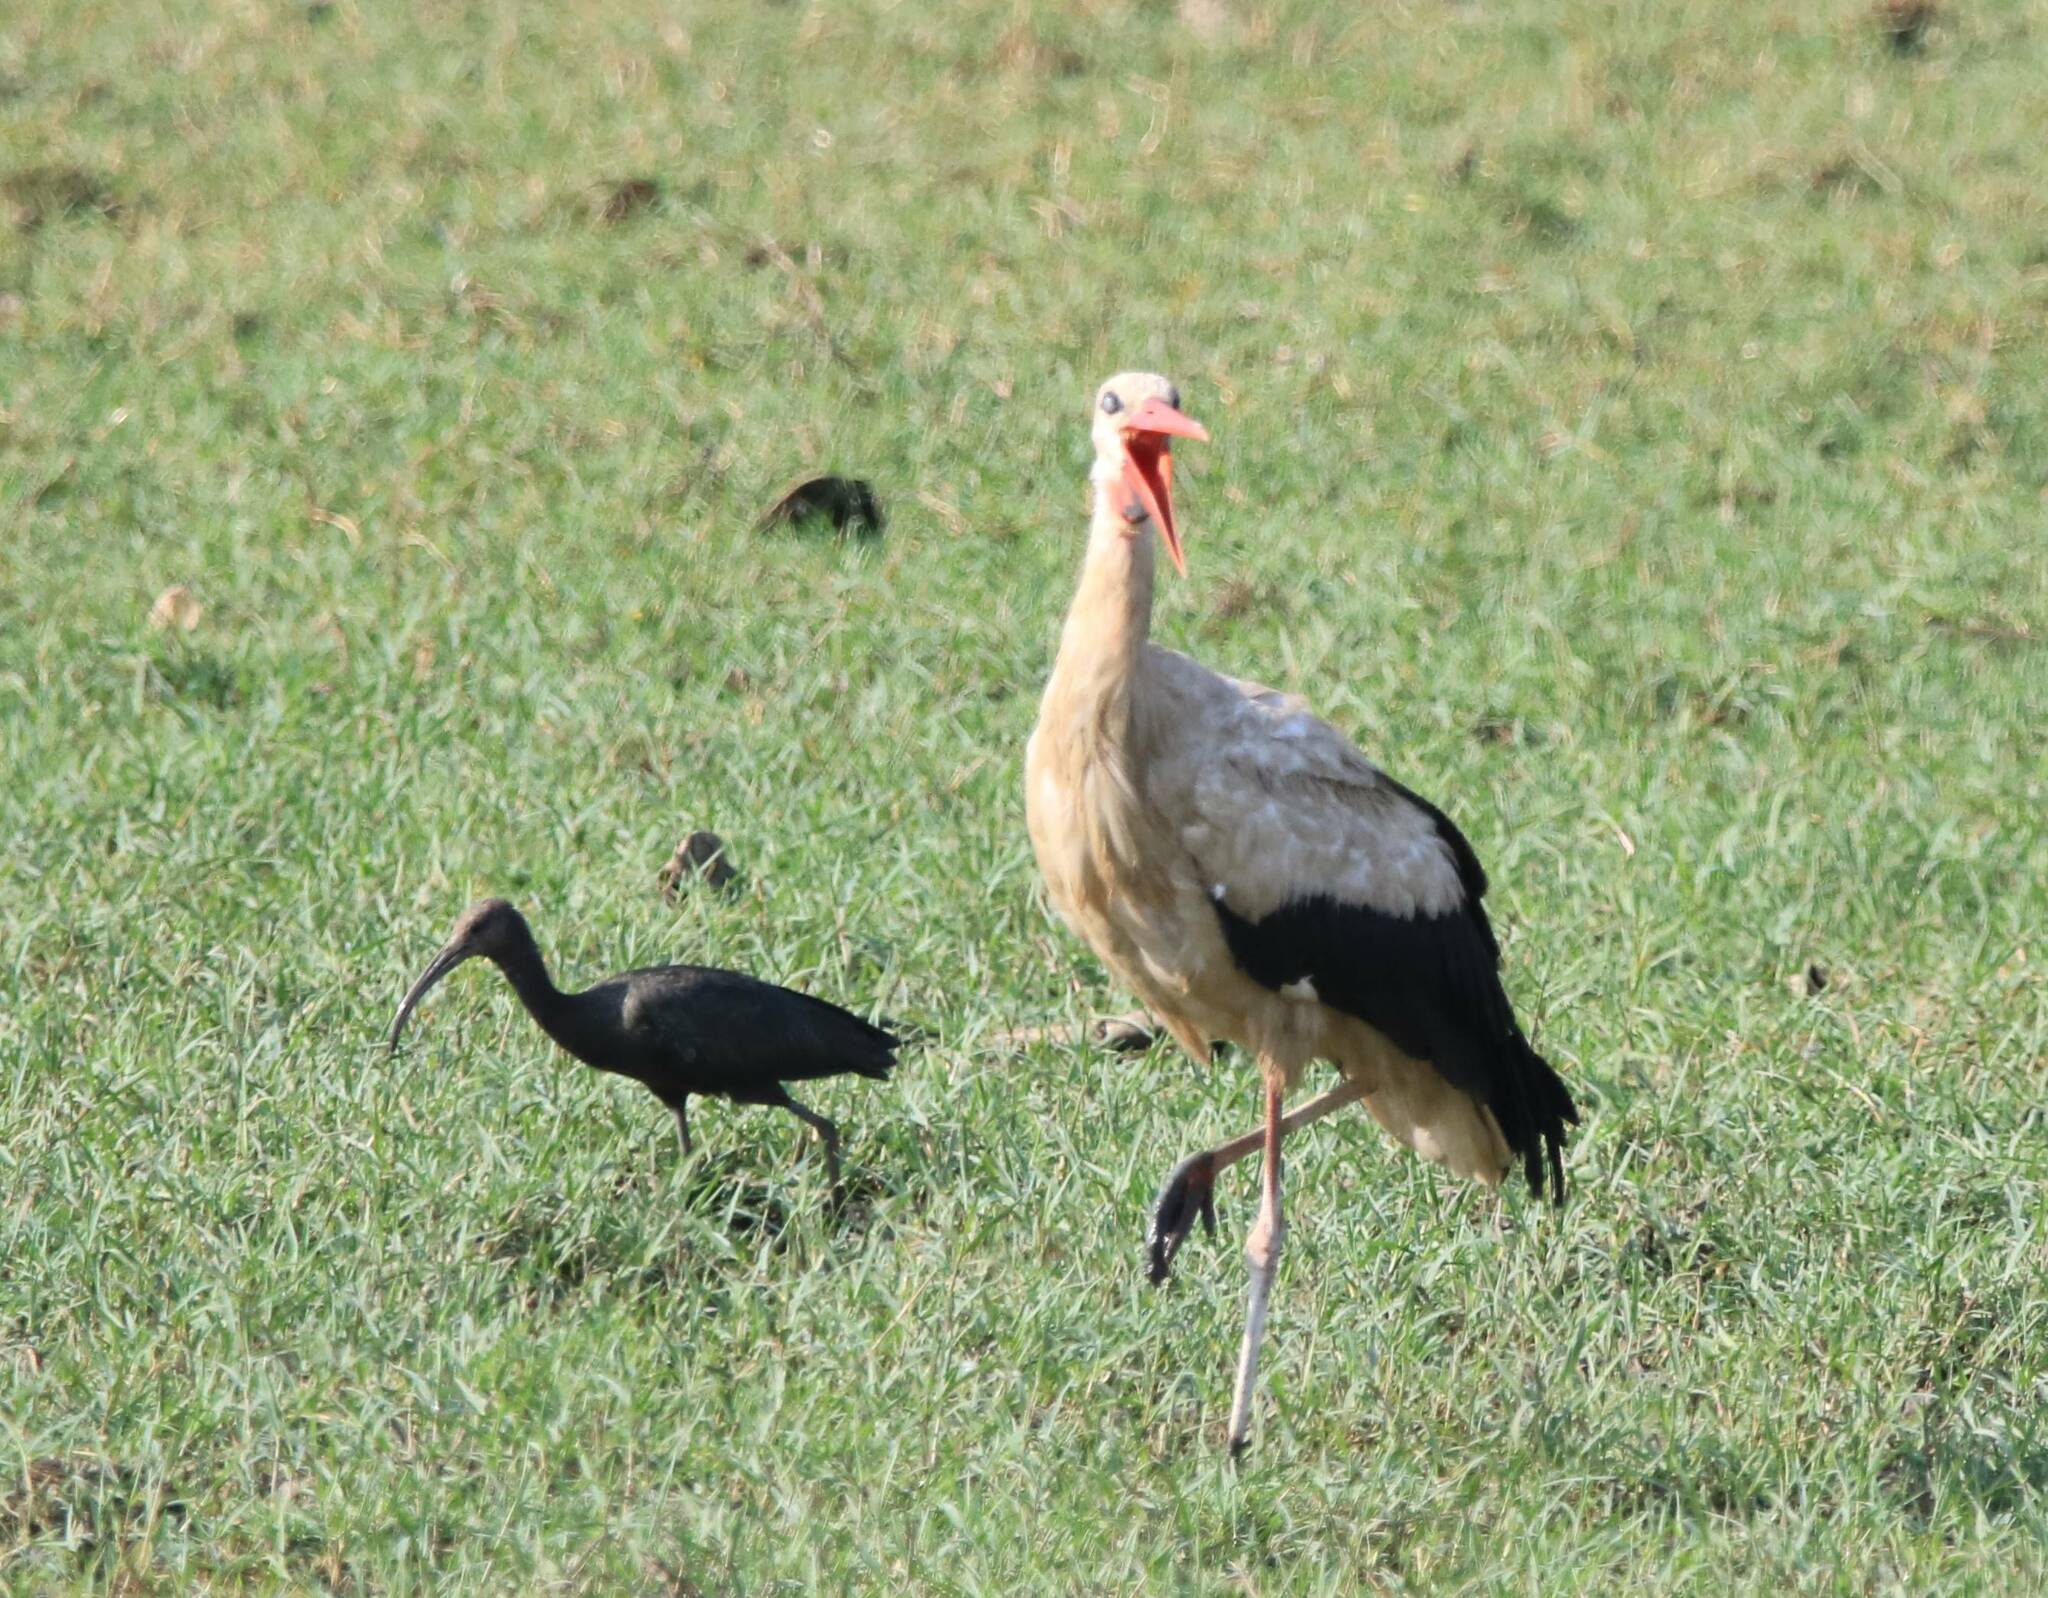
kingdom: Animalia
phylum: Chordata
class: Aves
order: Ciconiiformes
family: Ciconiidae
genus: Ciconia
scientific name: Ciconia ciconia
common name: White stork
